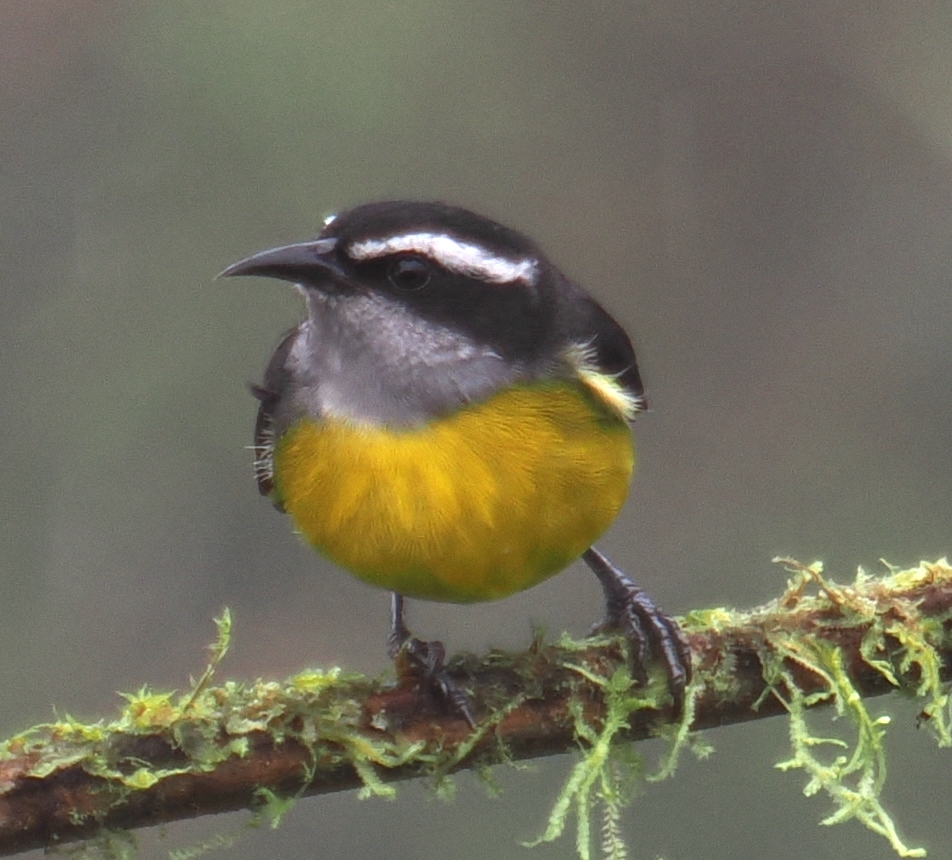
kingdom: Animalia
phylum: Chordata
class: Aves
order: Passeriformes
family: Thraupidae
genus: Coereba
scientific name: Coereba flaveola
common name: Bananaquit
